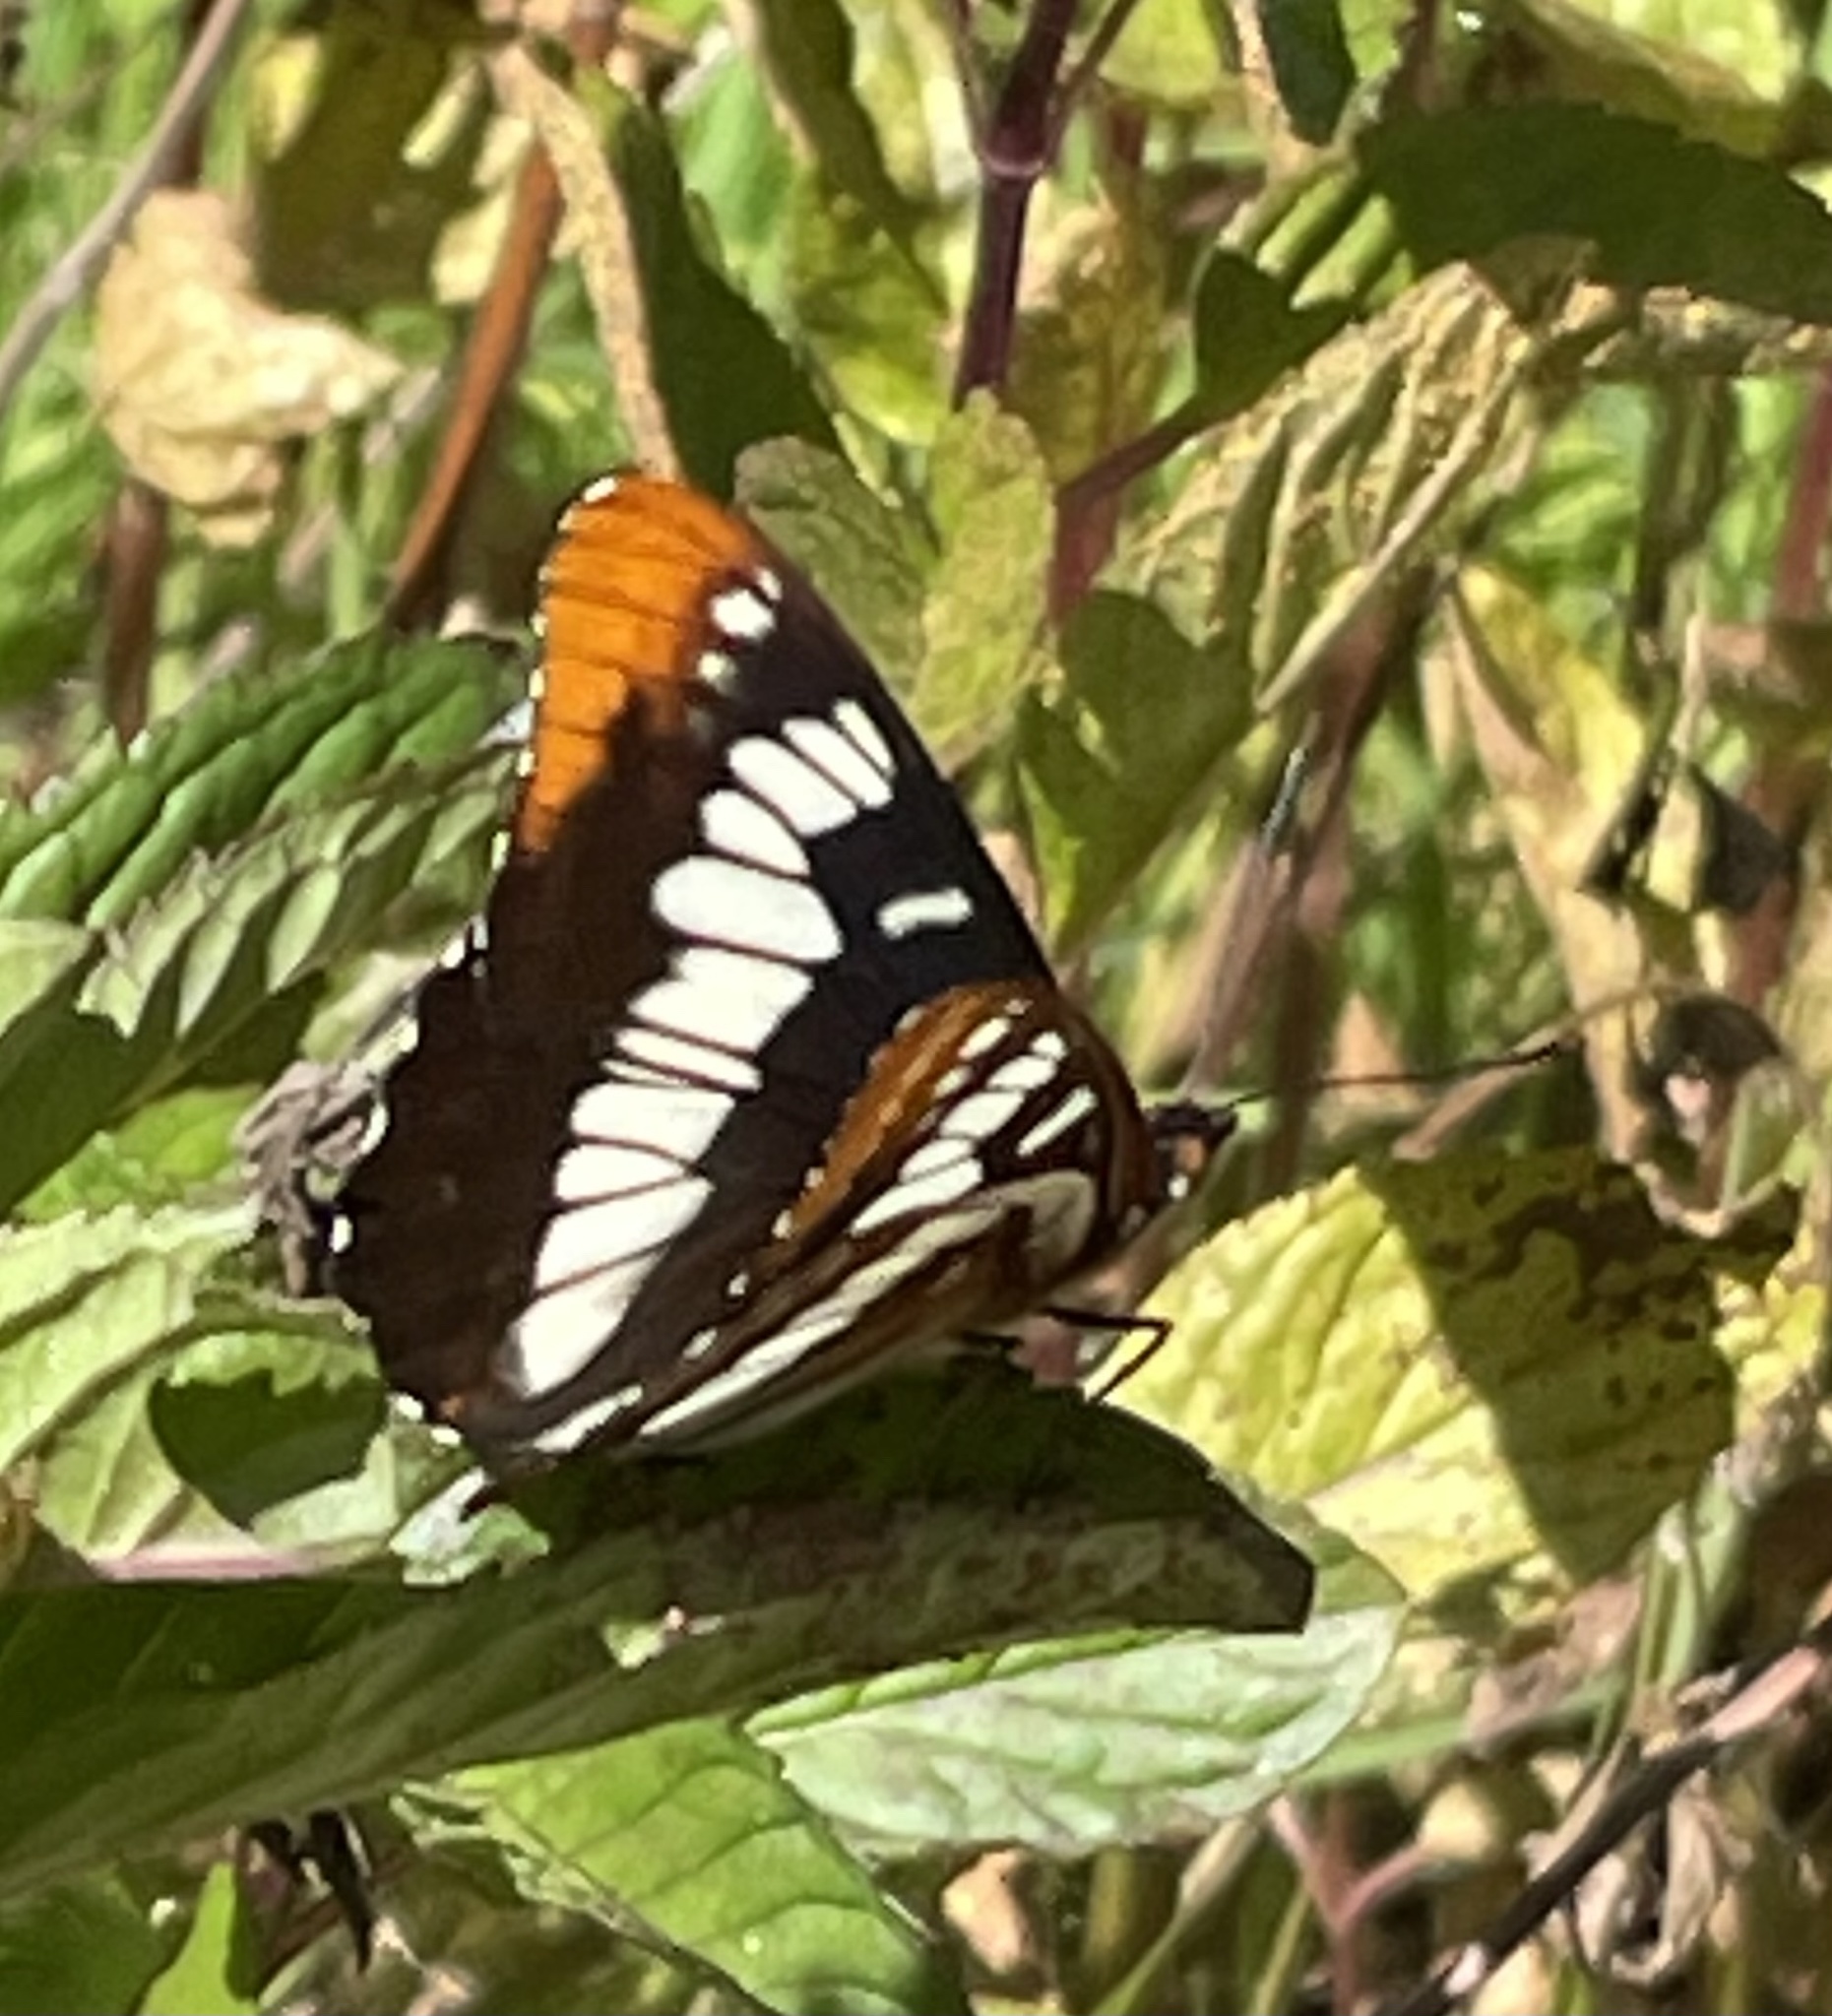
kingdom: Animalia
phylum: Arthropoda
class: Insecta
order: Lepidoptera
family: Nymphalidae
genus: Limenitis
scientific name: Limenitis lorquini
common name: Lorquin's admiral
